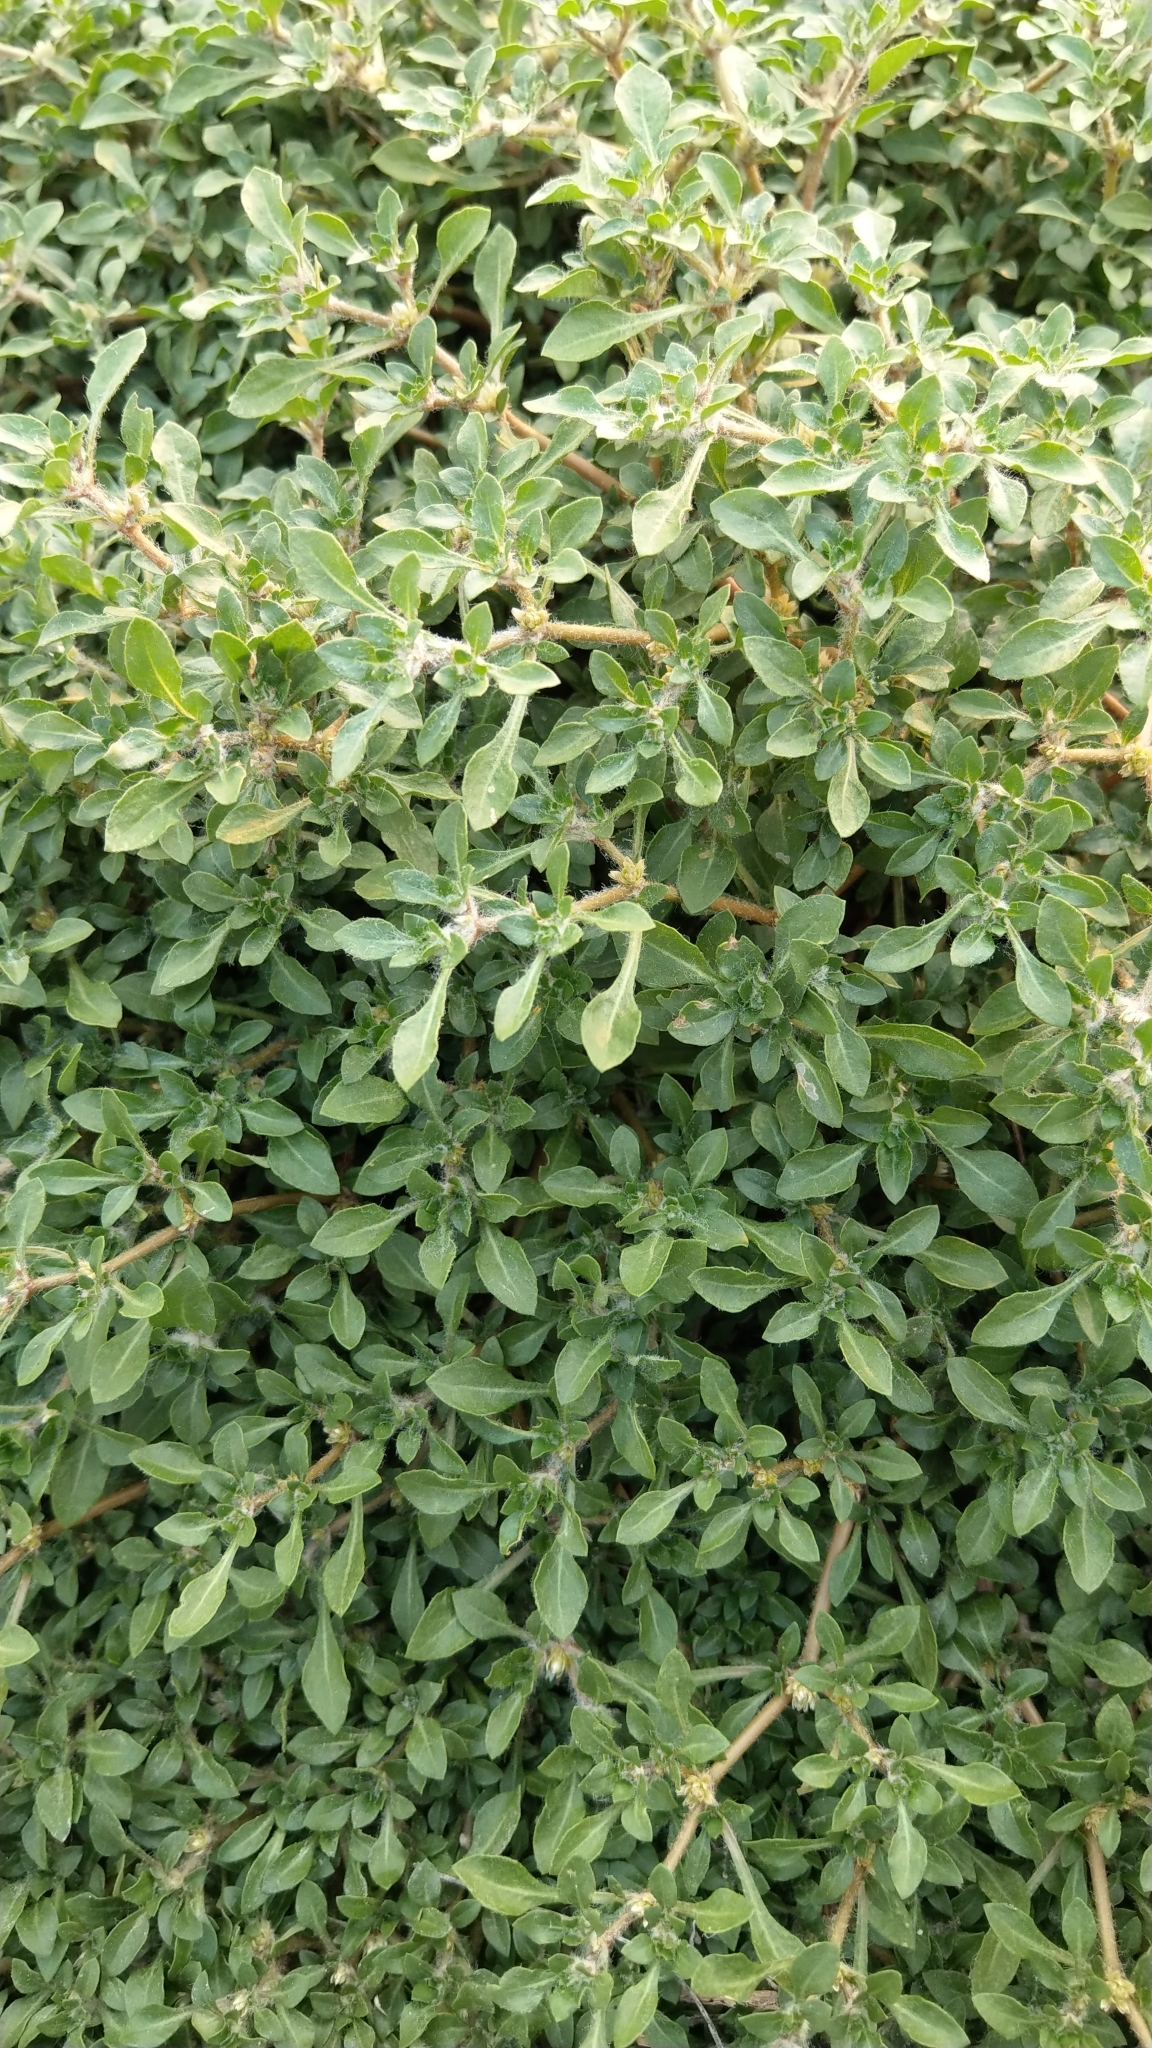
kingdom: Plantae
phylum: Tracheophyta
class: Magnoliopsida
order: Caryophyllales
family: Amaranthaceae
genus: Alternanthera
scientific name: Alternanthera paronychioides
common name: Smooth joyweed
